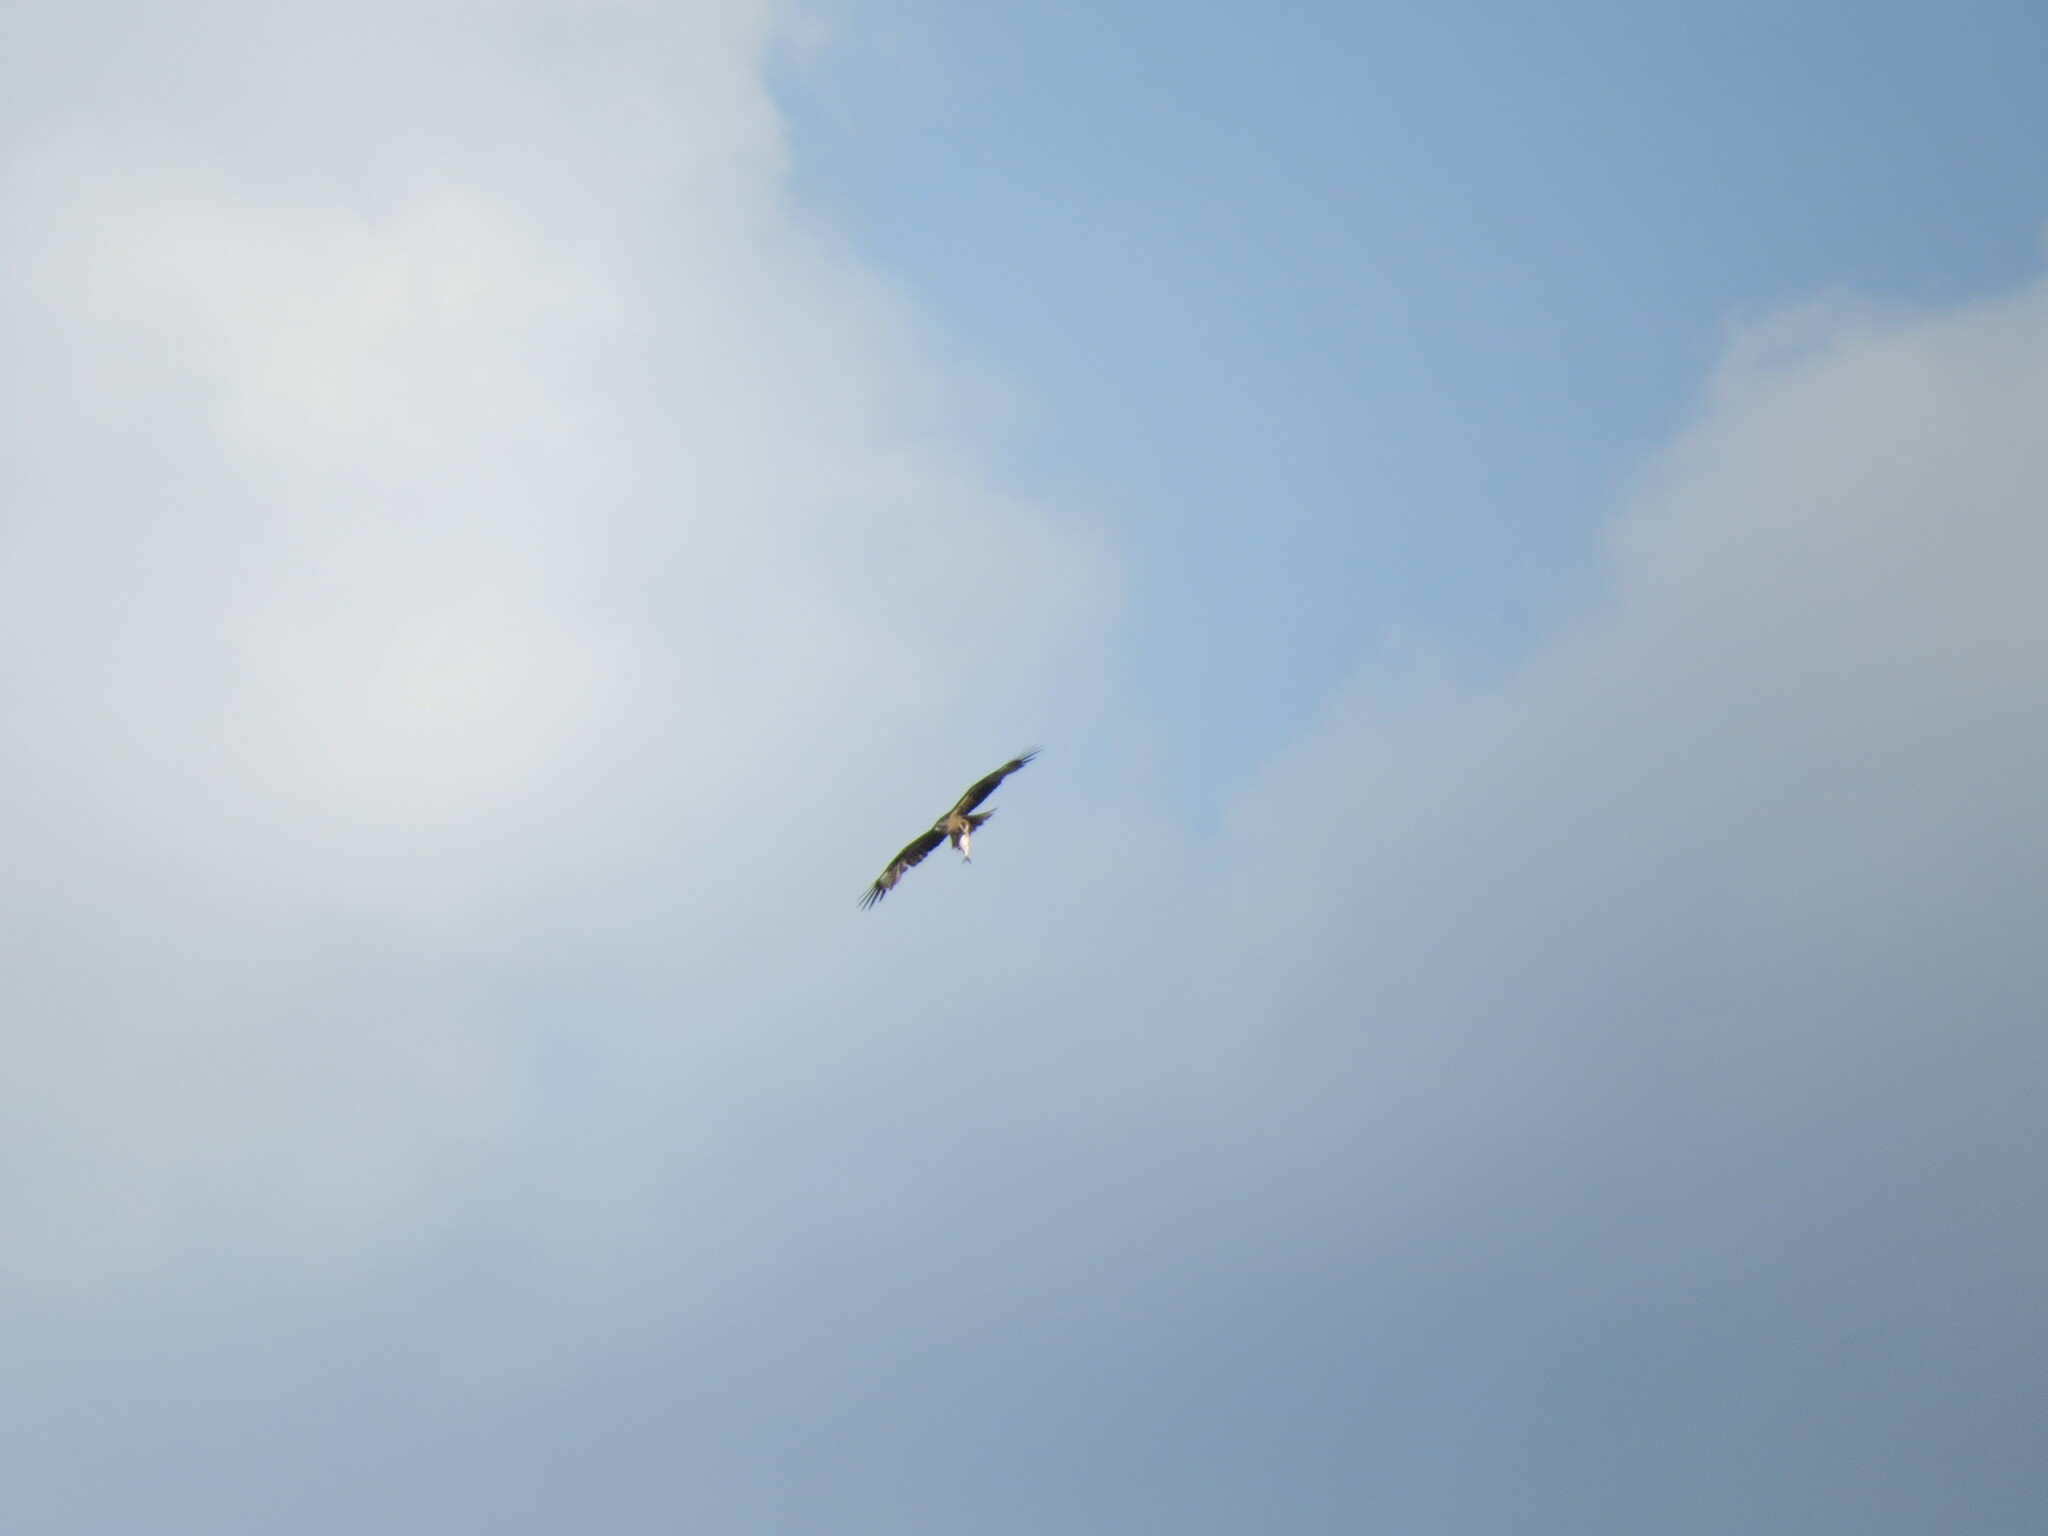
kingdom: Animalia
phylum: Chordata
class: Aves
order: Accipitriformes
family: Accipitridae
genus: Milvus
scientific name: Milvus migrans
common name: Black kite
